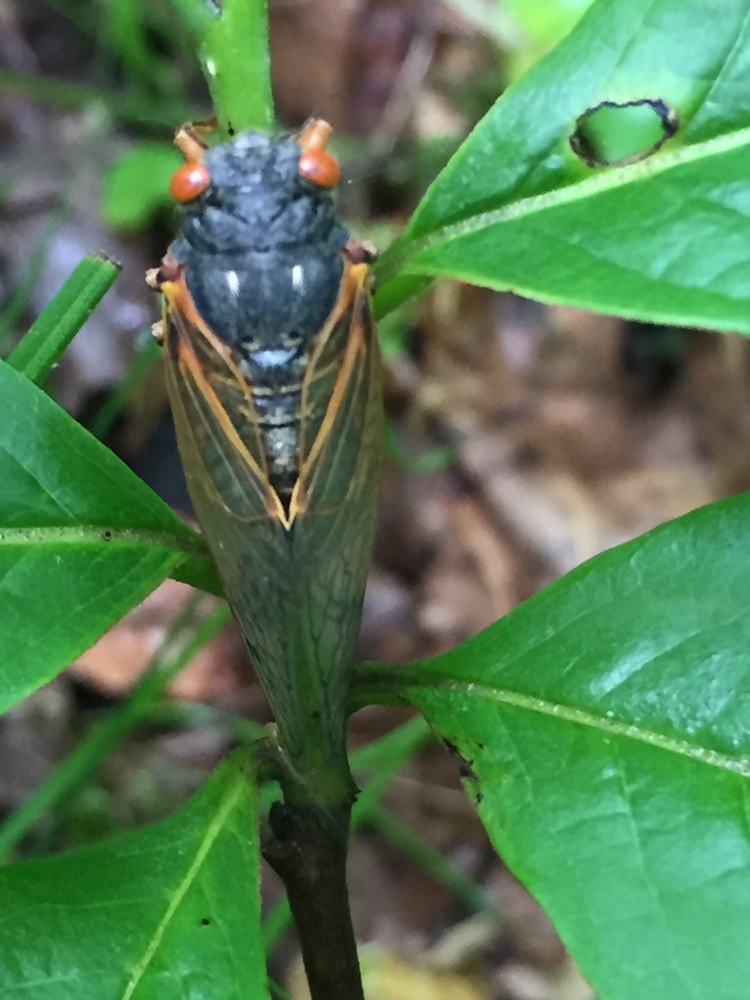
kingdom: Animalia
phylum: Arthropoda
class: Insecta
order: Hemiptera
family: Cicadidae
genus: Magicicada
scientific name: Magicicada
